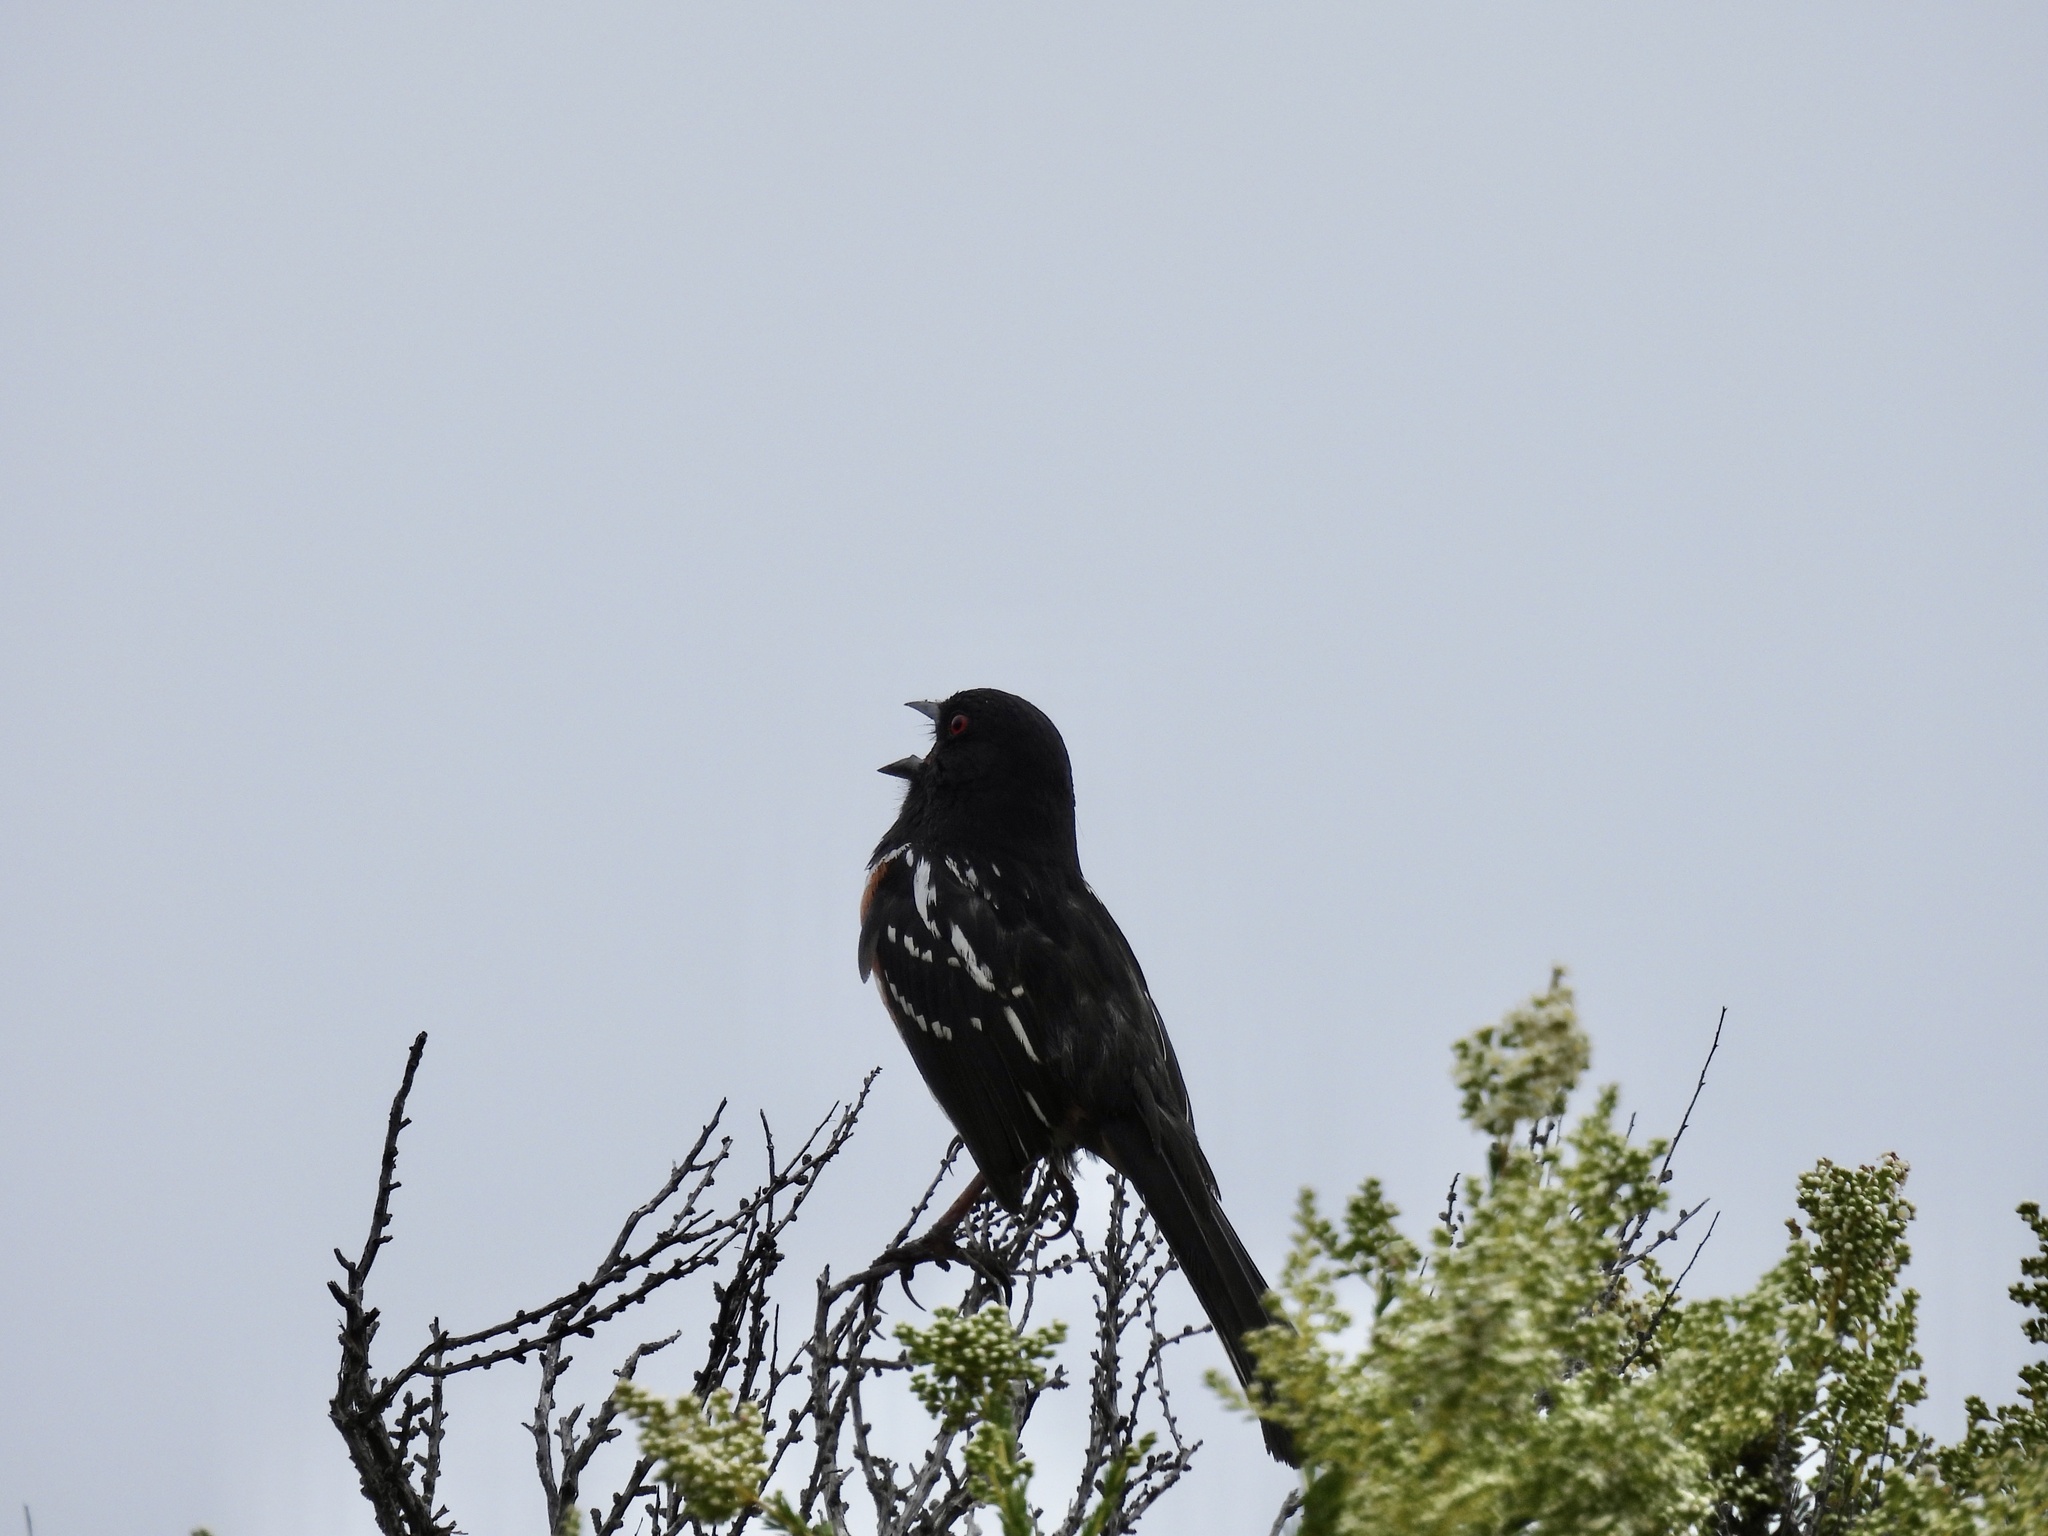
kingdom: Animalia
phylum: Chordata
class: Aves
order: Passeriformes
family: Passerellidae
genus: Pipilo
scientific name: Pipilo maculatus
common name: Spotted towhee
